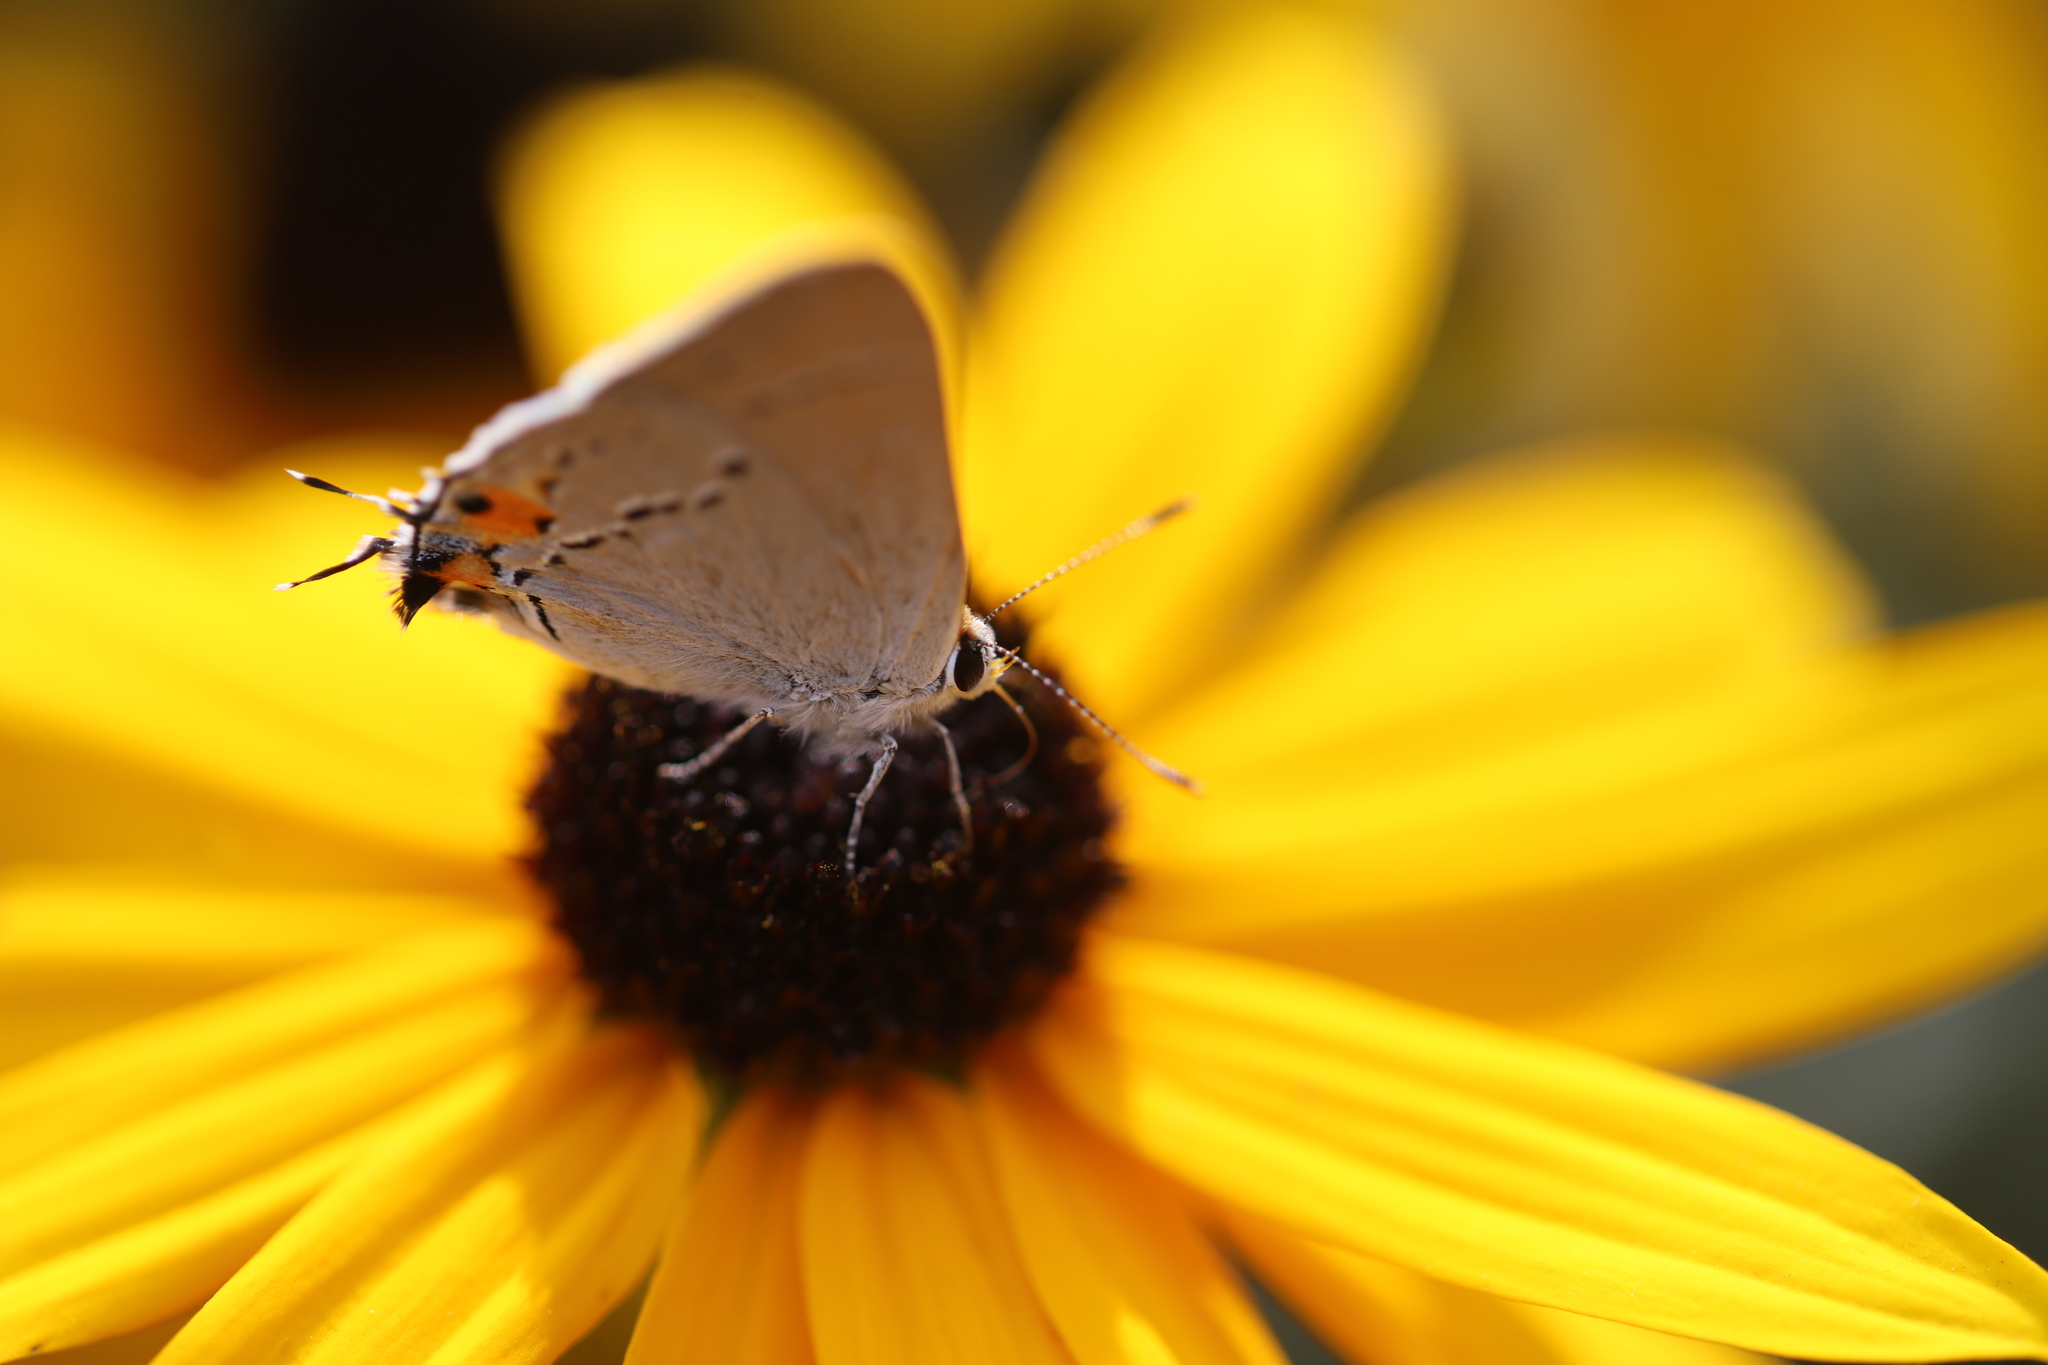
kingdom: Animalia
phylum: Arthropoda
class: Insecta
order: Lepidoptera
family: Lycaenidae
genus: Strymon
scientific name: Strymon melinus
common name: Gray hairstreak
